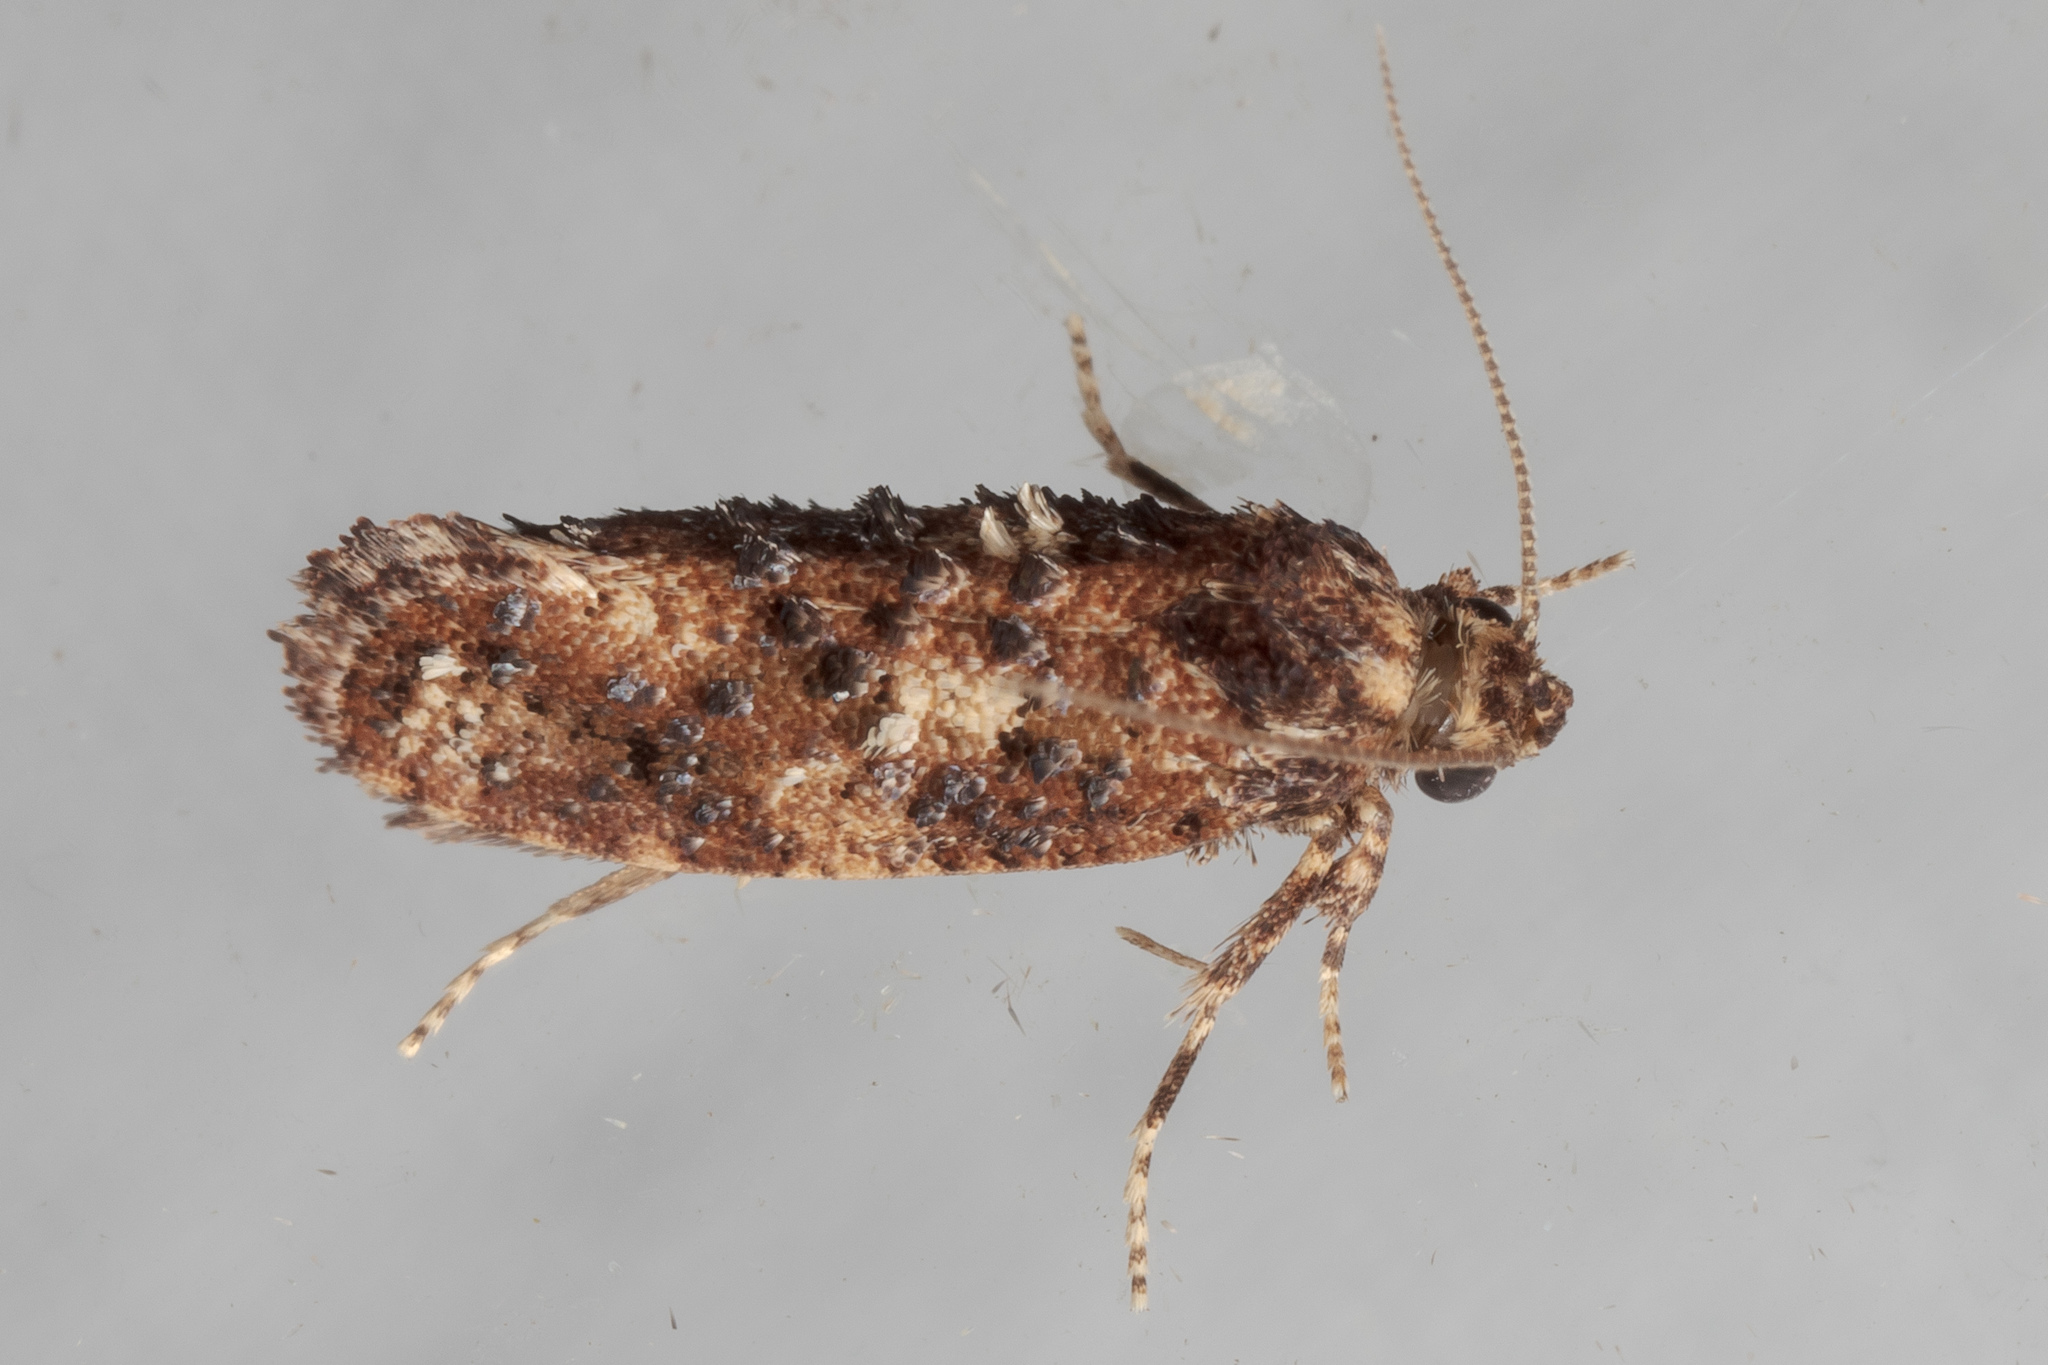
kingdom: Animalia
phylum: Arthropoda
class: Insecta
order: Lepidoptera
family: Tineidae
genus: Acrolophus
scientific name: Acrolophus cressoni
